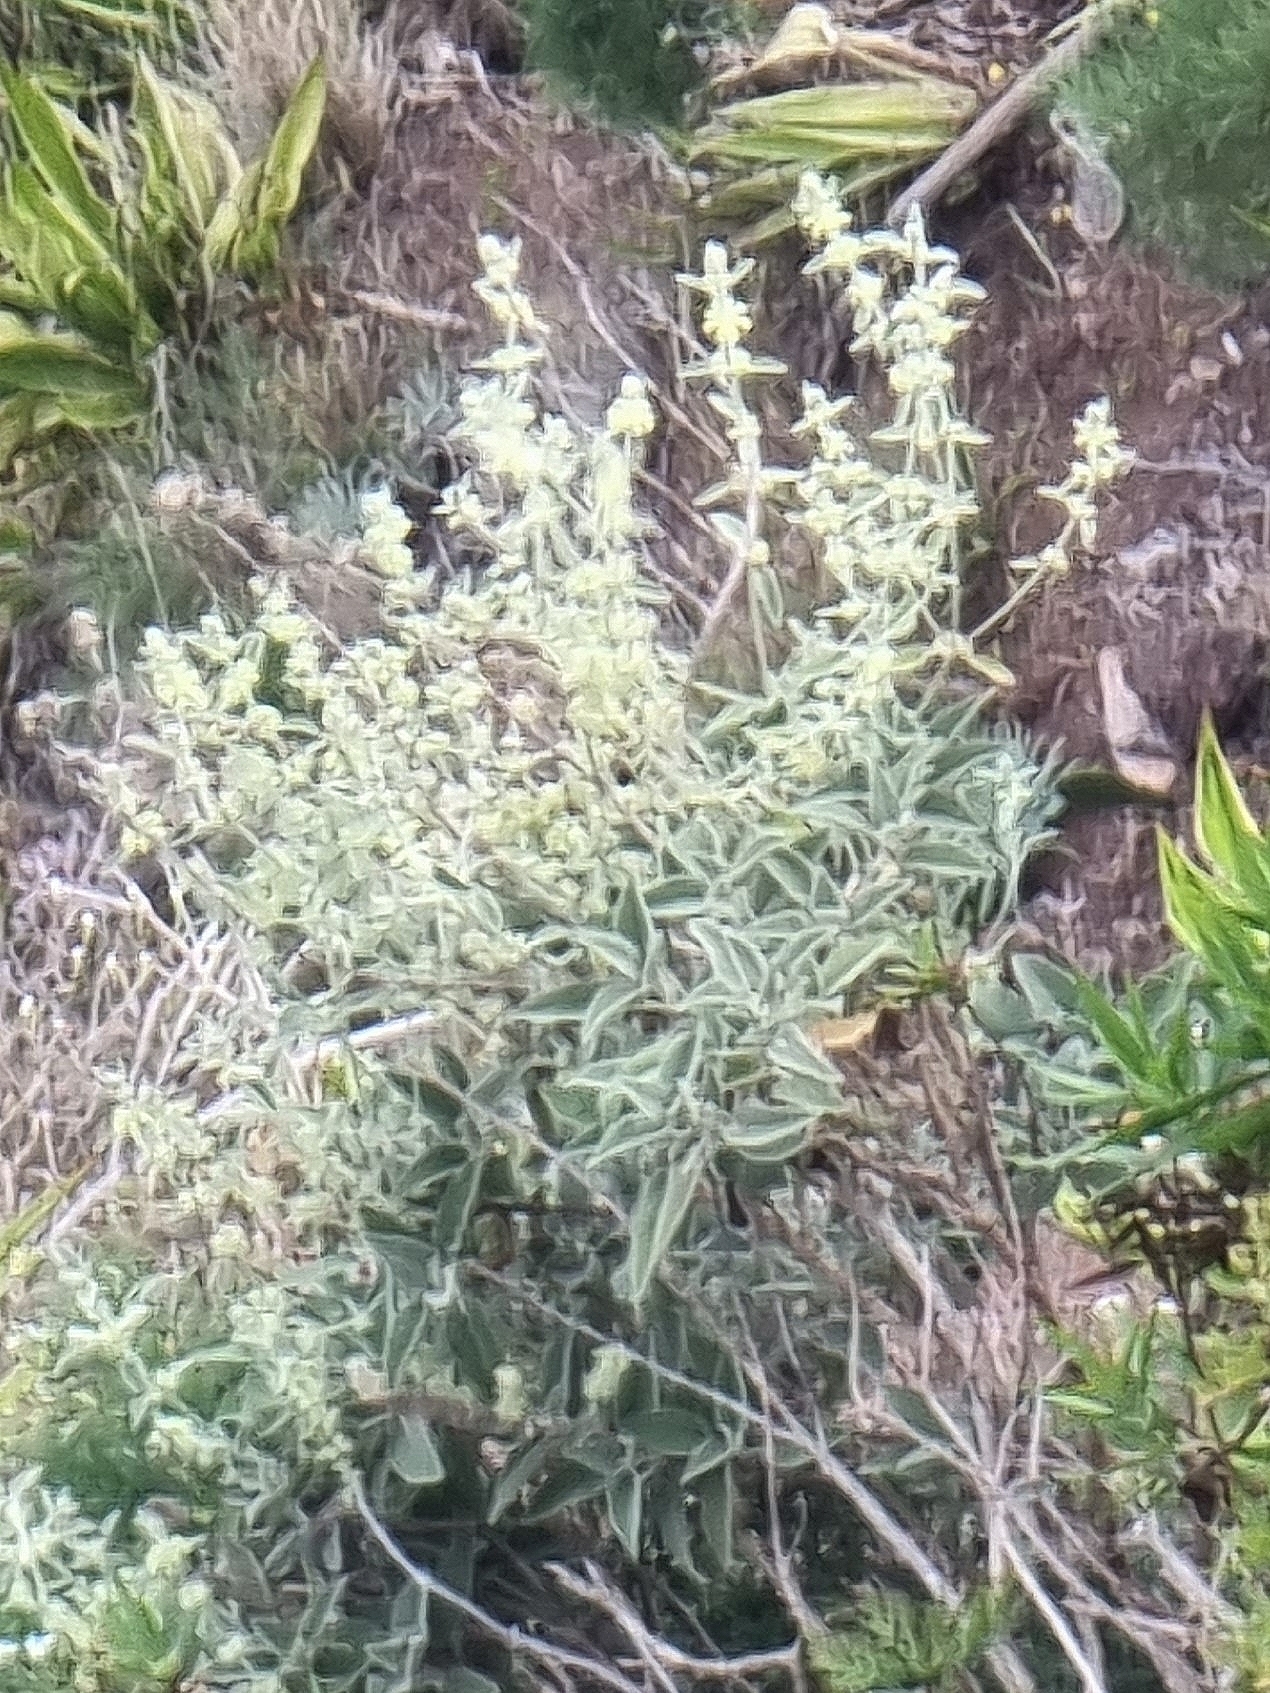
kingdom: Plantae
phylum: Tracheophyta
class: Magnoliopsida
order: Lamiales
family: Lamiaceae
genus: Sideritis
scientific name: Sideritis candicans
